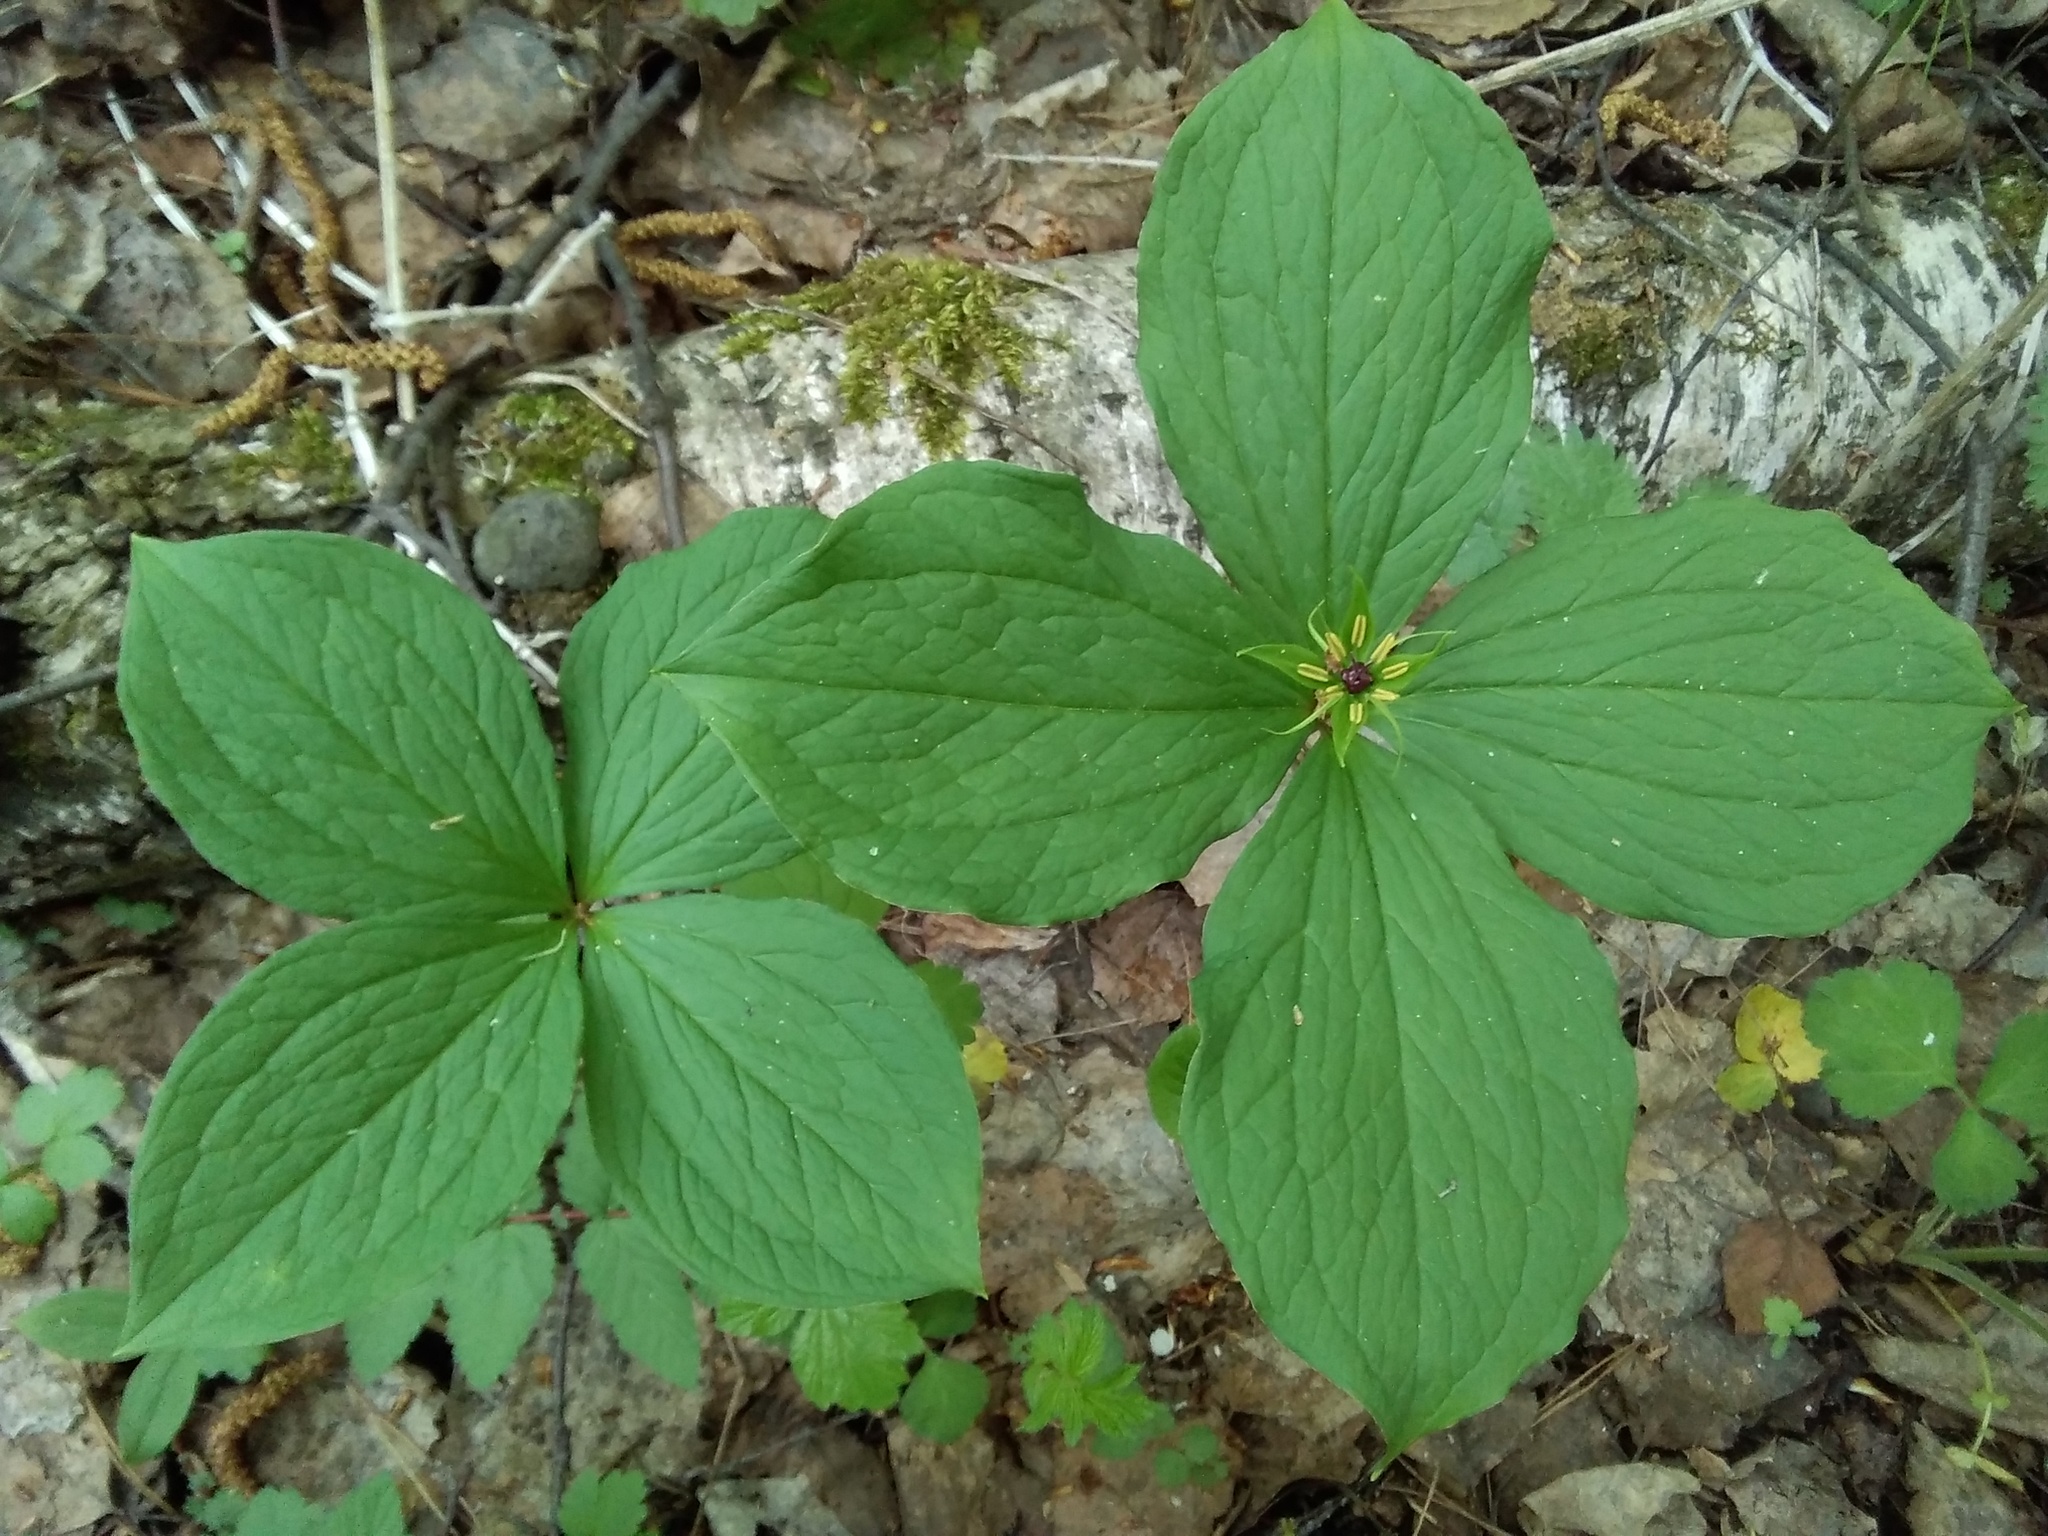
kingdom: Plantae
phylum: Tracheophyta
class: Liliopsida
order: Liliales
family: Melanthiaceae
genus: Paris
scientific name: Paris quadrifolia
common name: Herb-paris
